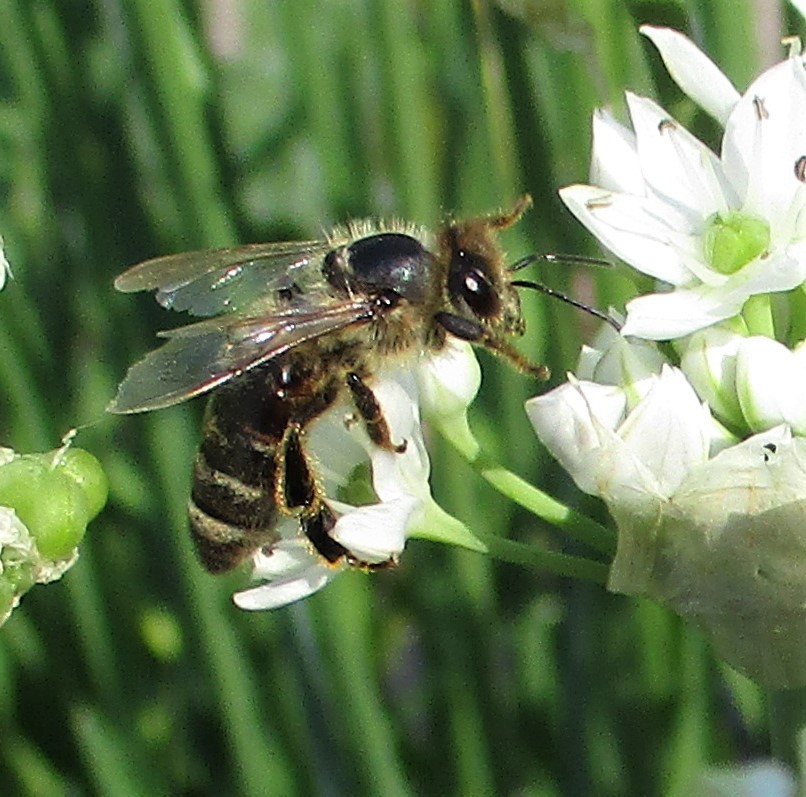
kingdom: Animalia
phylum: Arthropoda
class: Insecta
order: Hymenoptera
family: Apidae
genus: Apis
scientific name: Apis mellifera
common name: Honey bee
